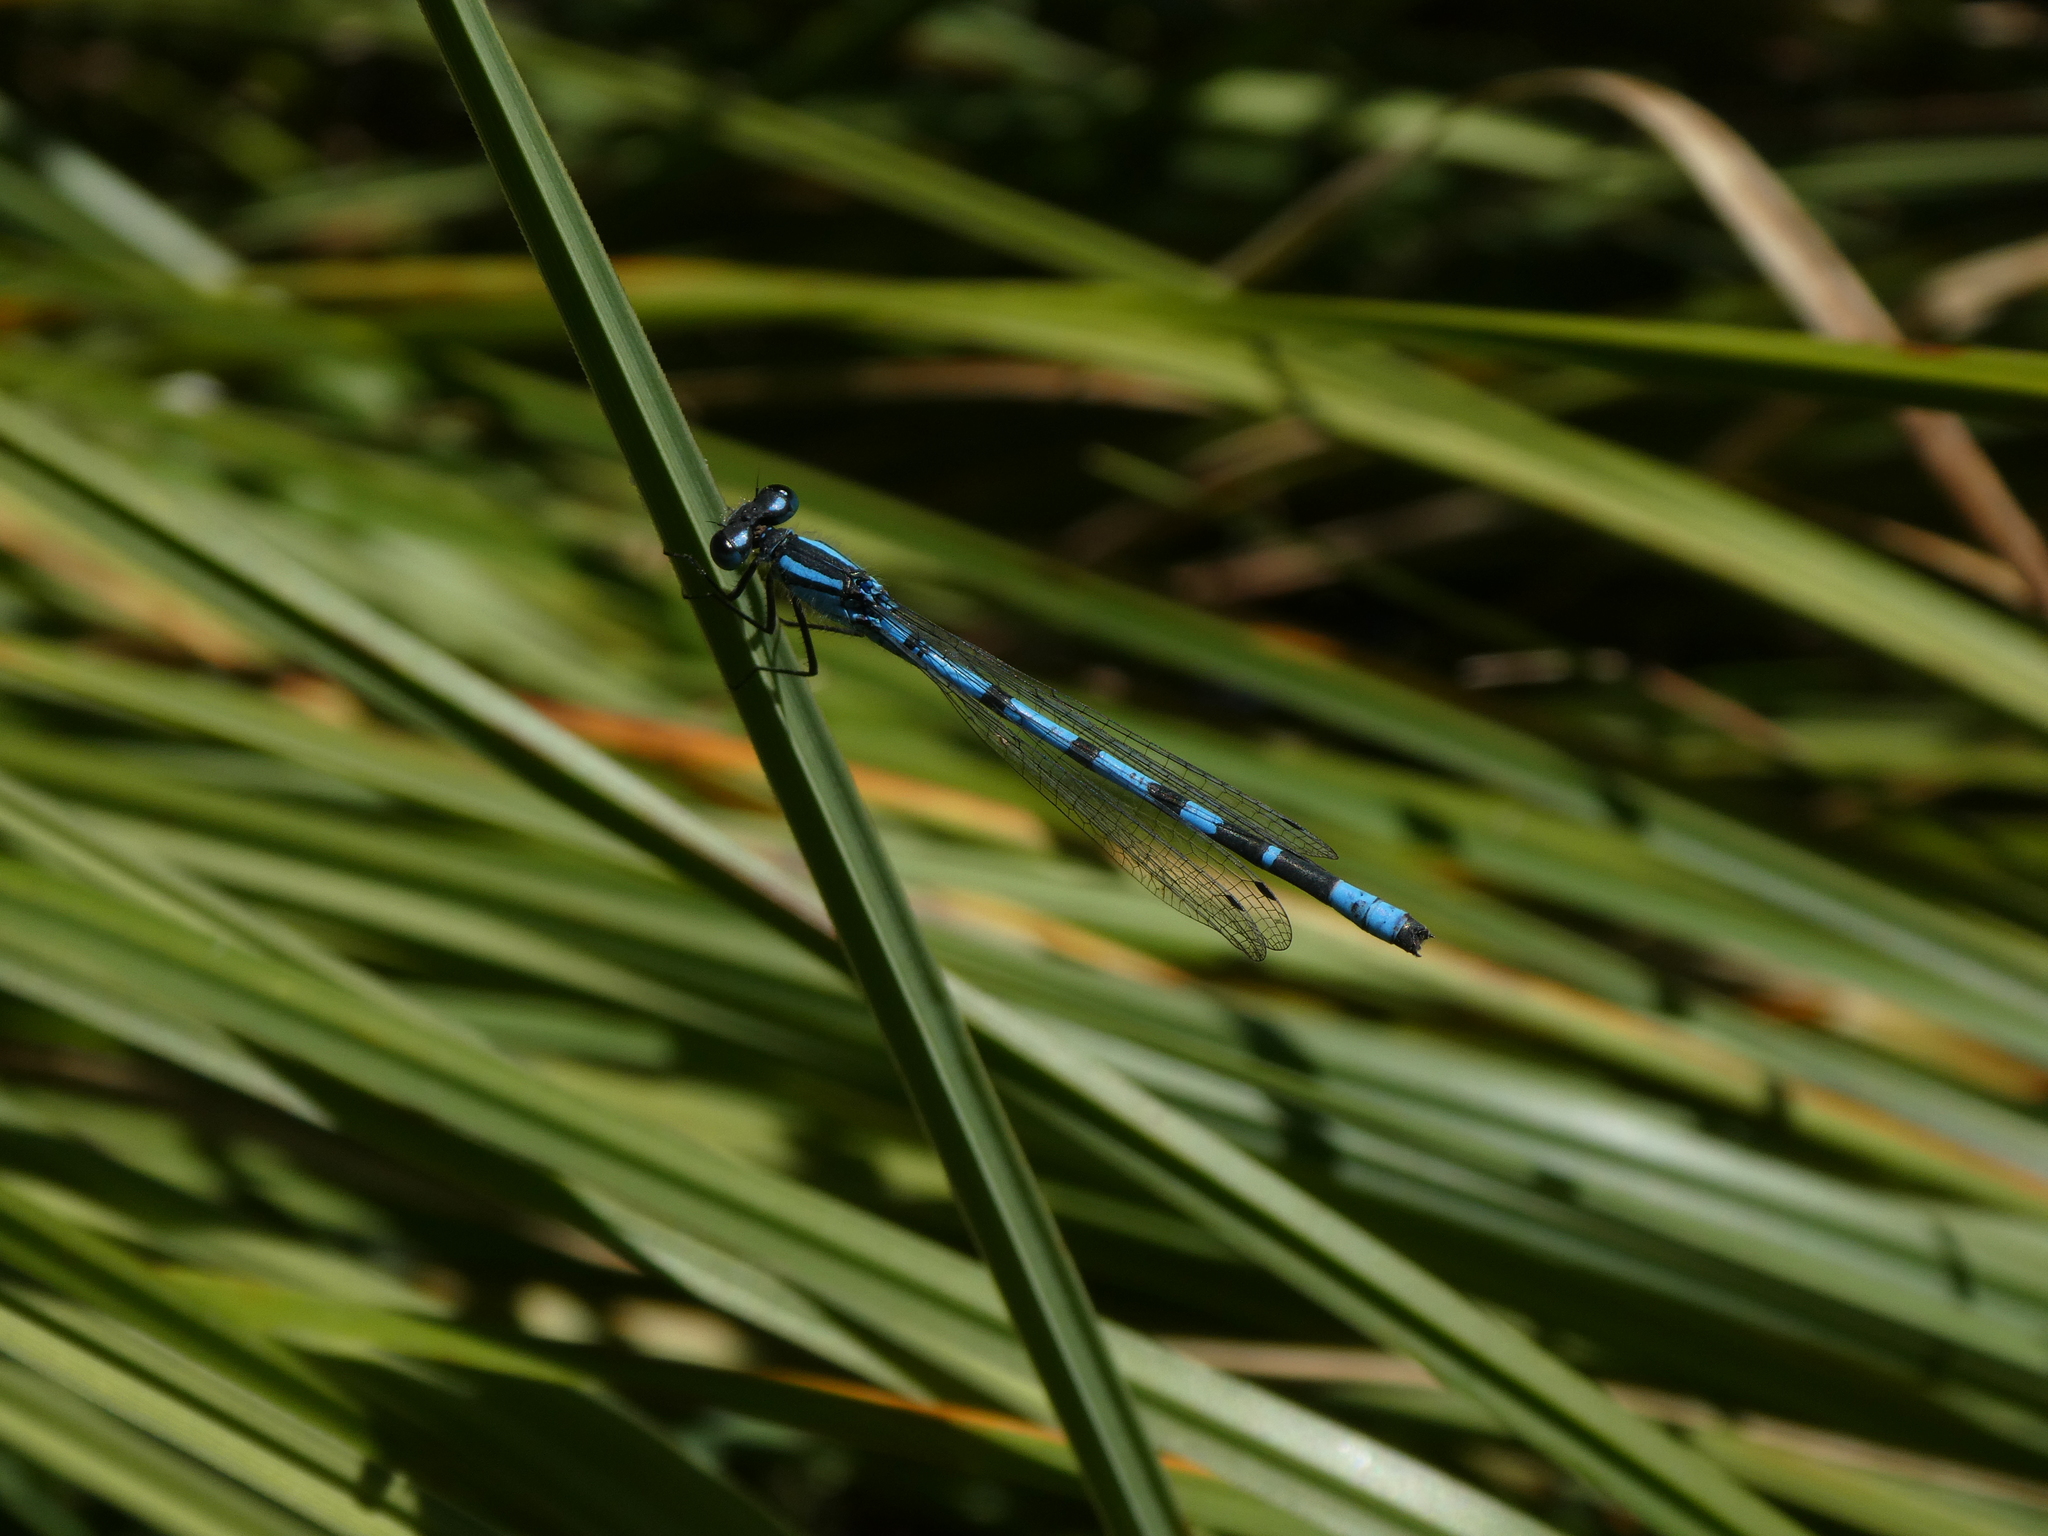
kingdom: Animalia
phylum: Arthropoda
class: Insecta
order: Odonata
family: Coenagrionidae
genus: Enallagma
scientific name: Enallagma cyathigerum
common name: Common blue damselfly
